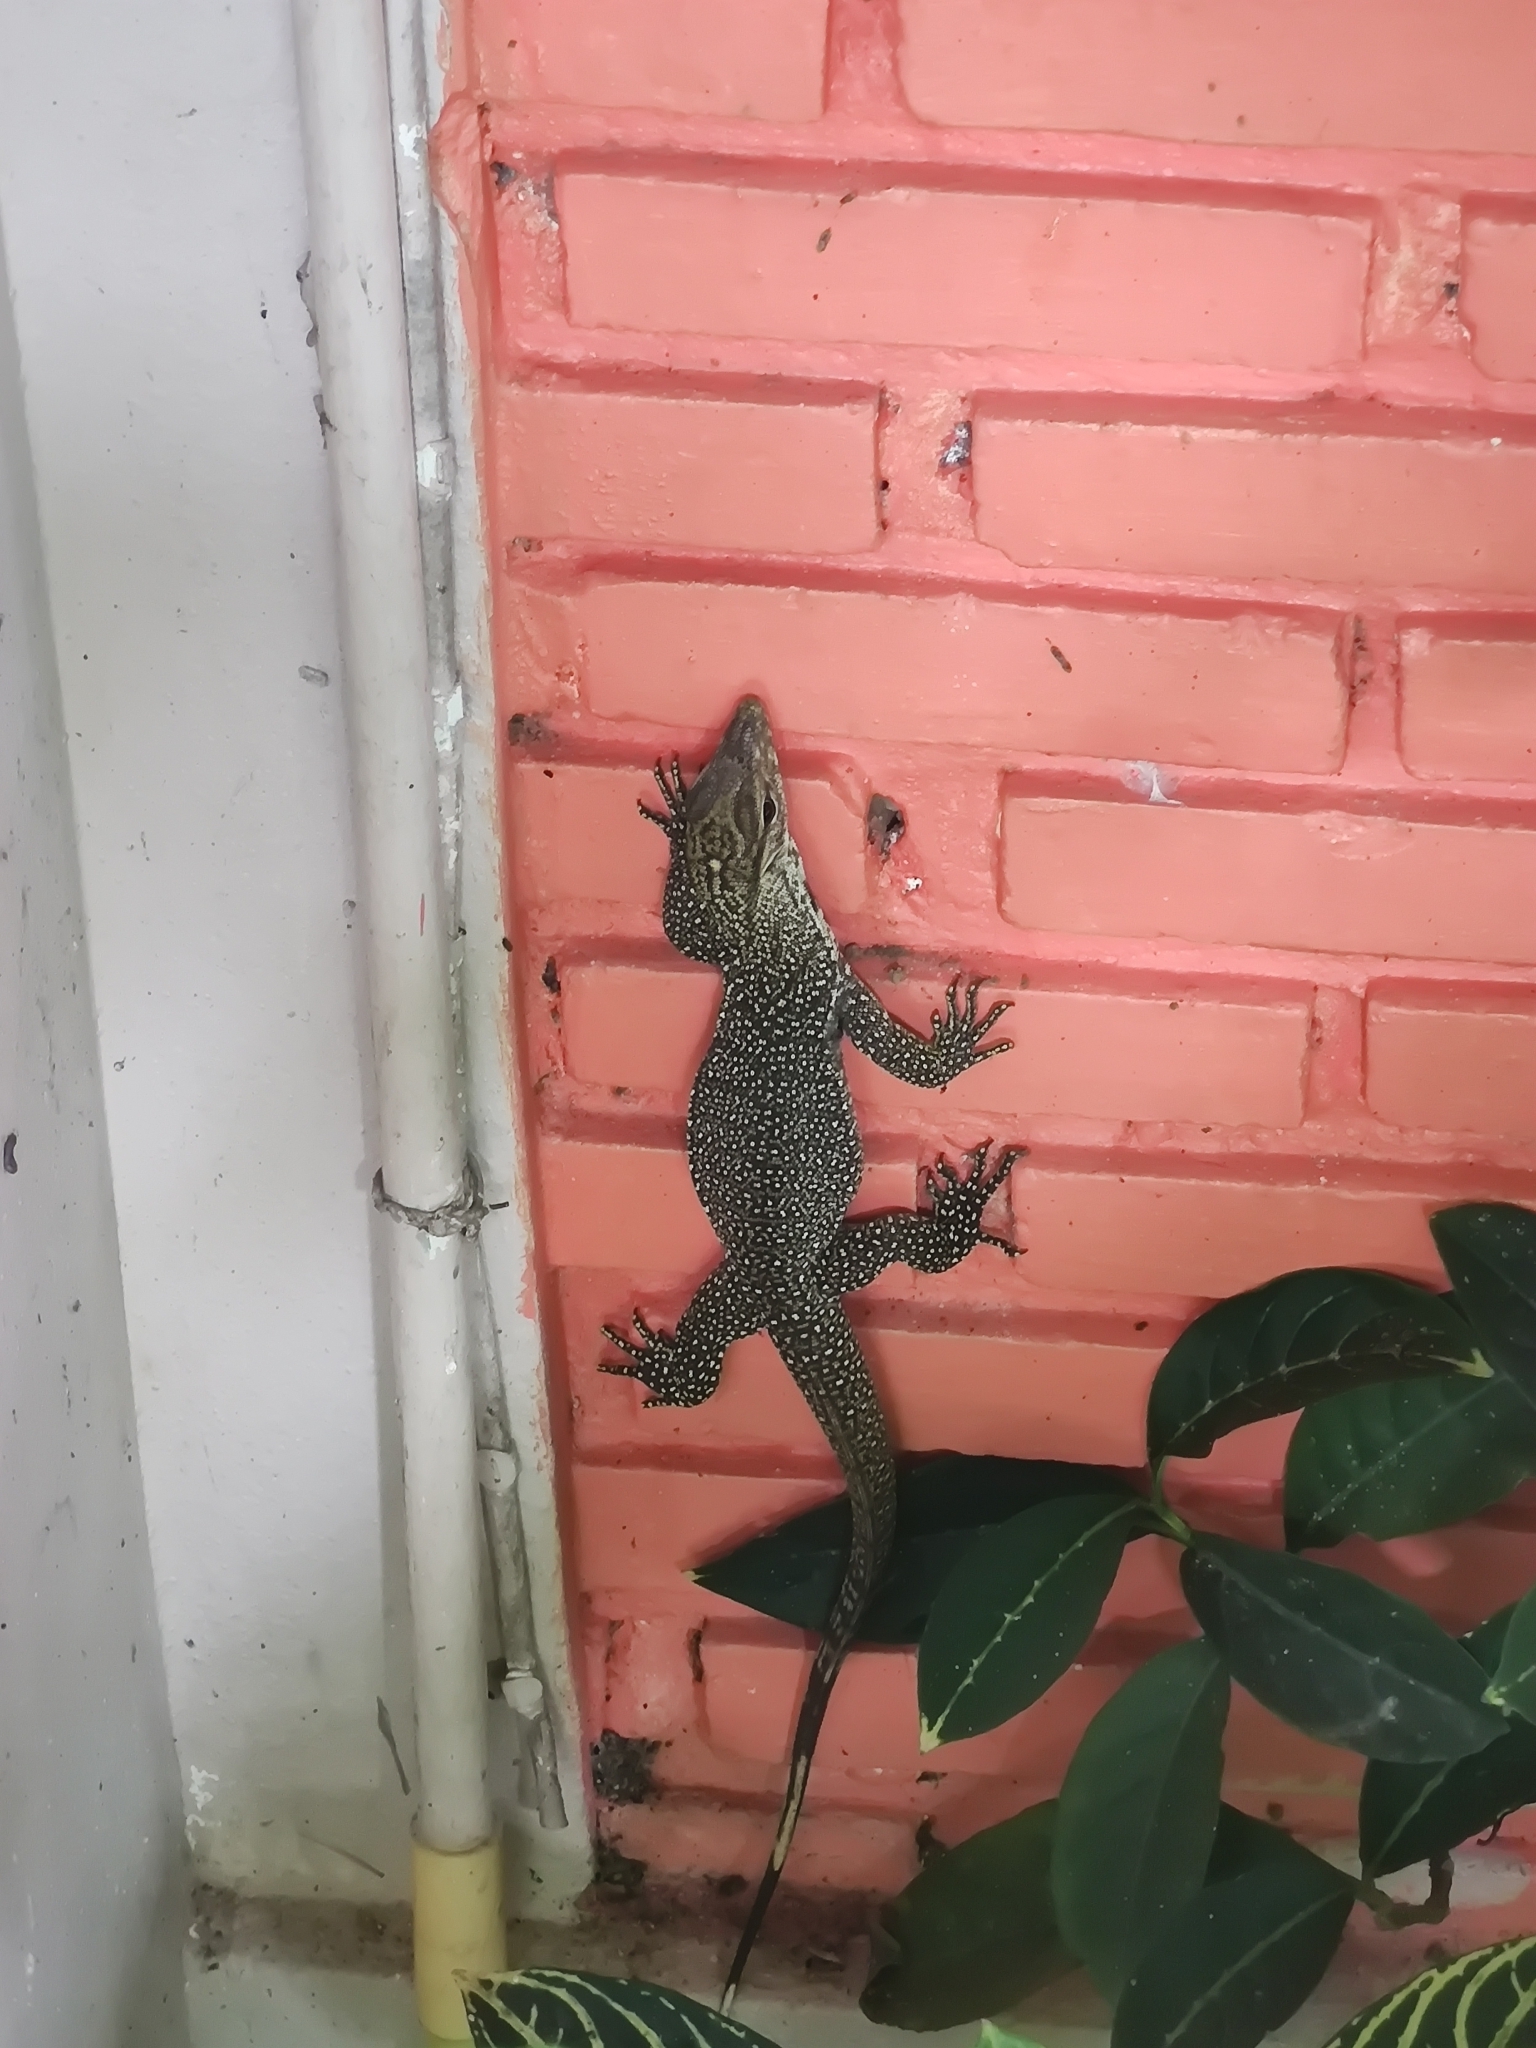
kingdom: Animalia
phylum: Chordata
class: Squamata
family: Varanidae
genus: Varanus
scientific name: Varanus nebulosus
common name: Clouded monitor
